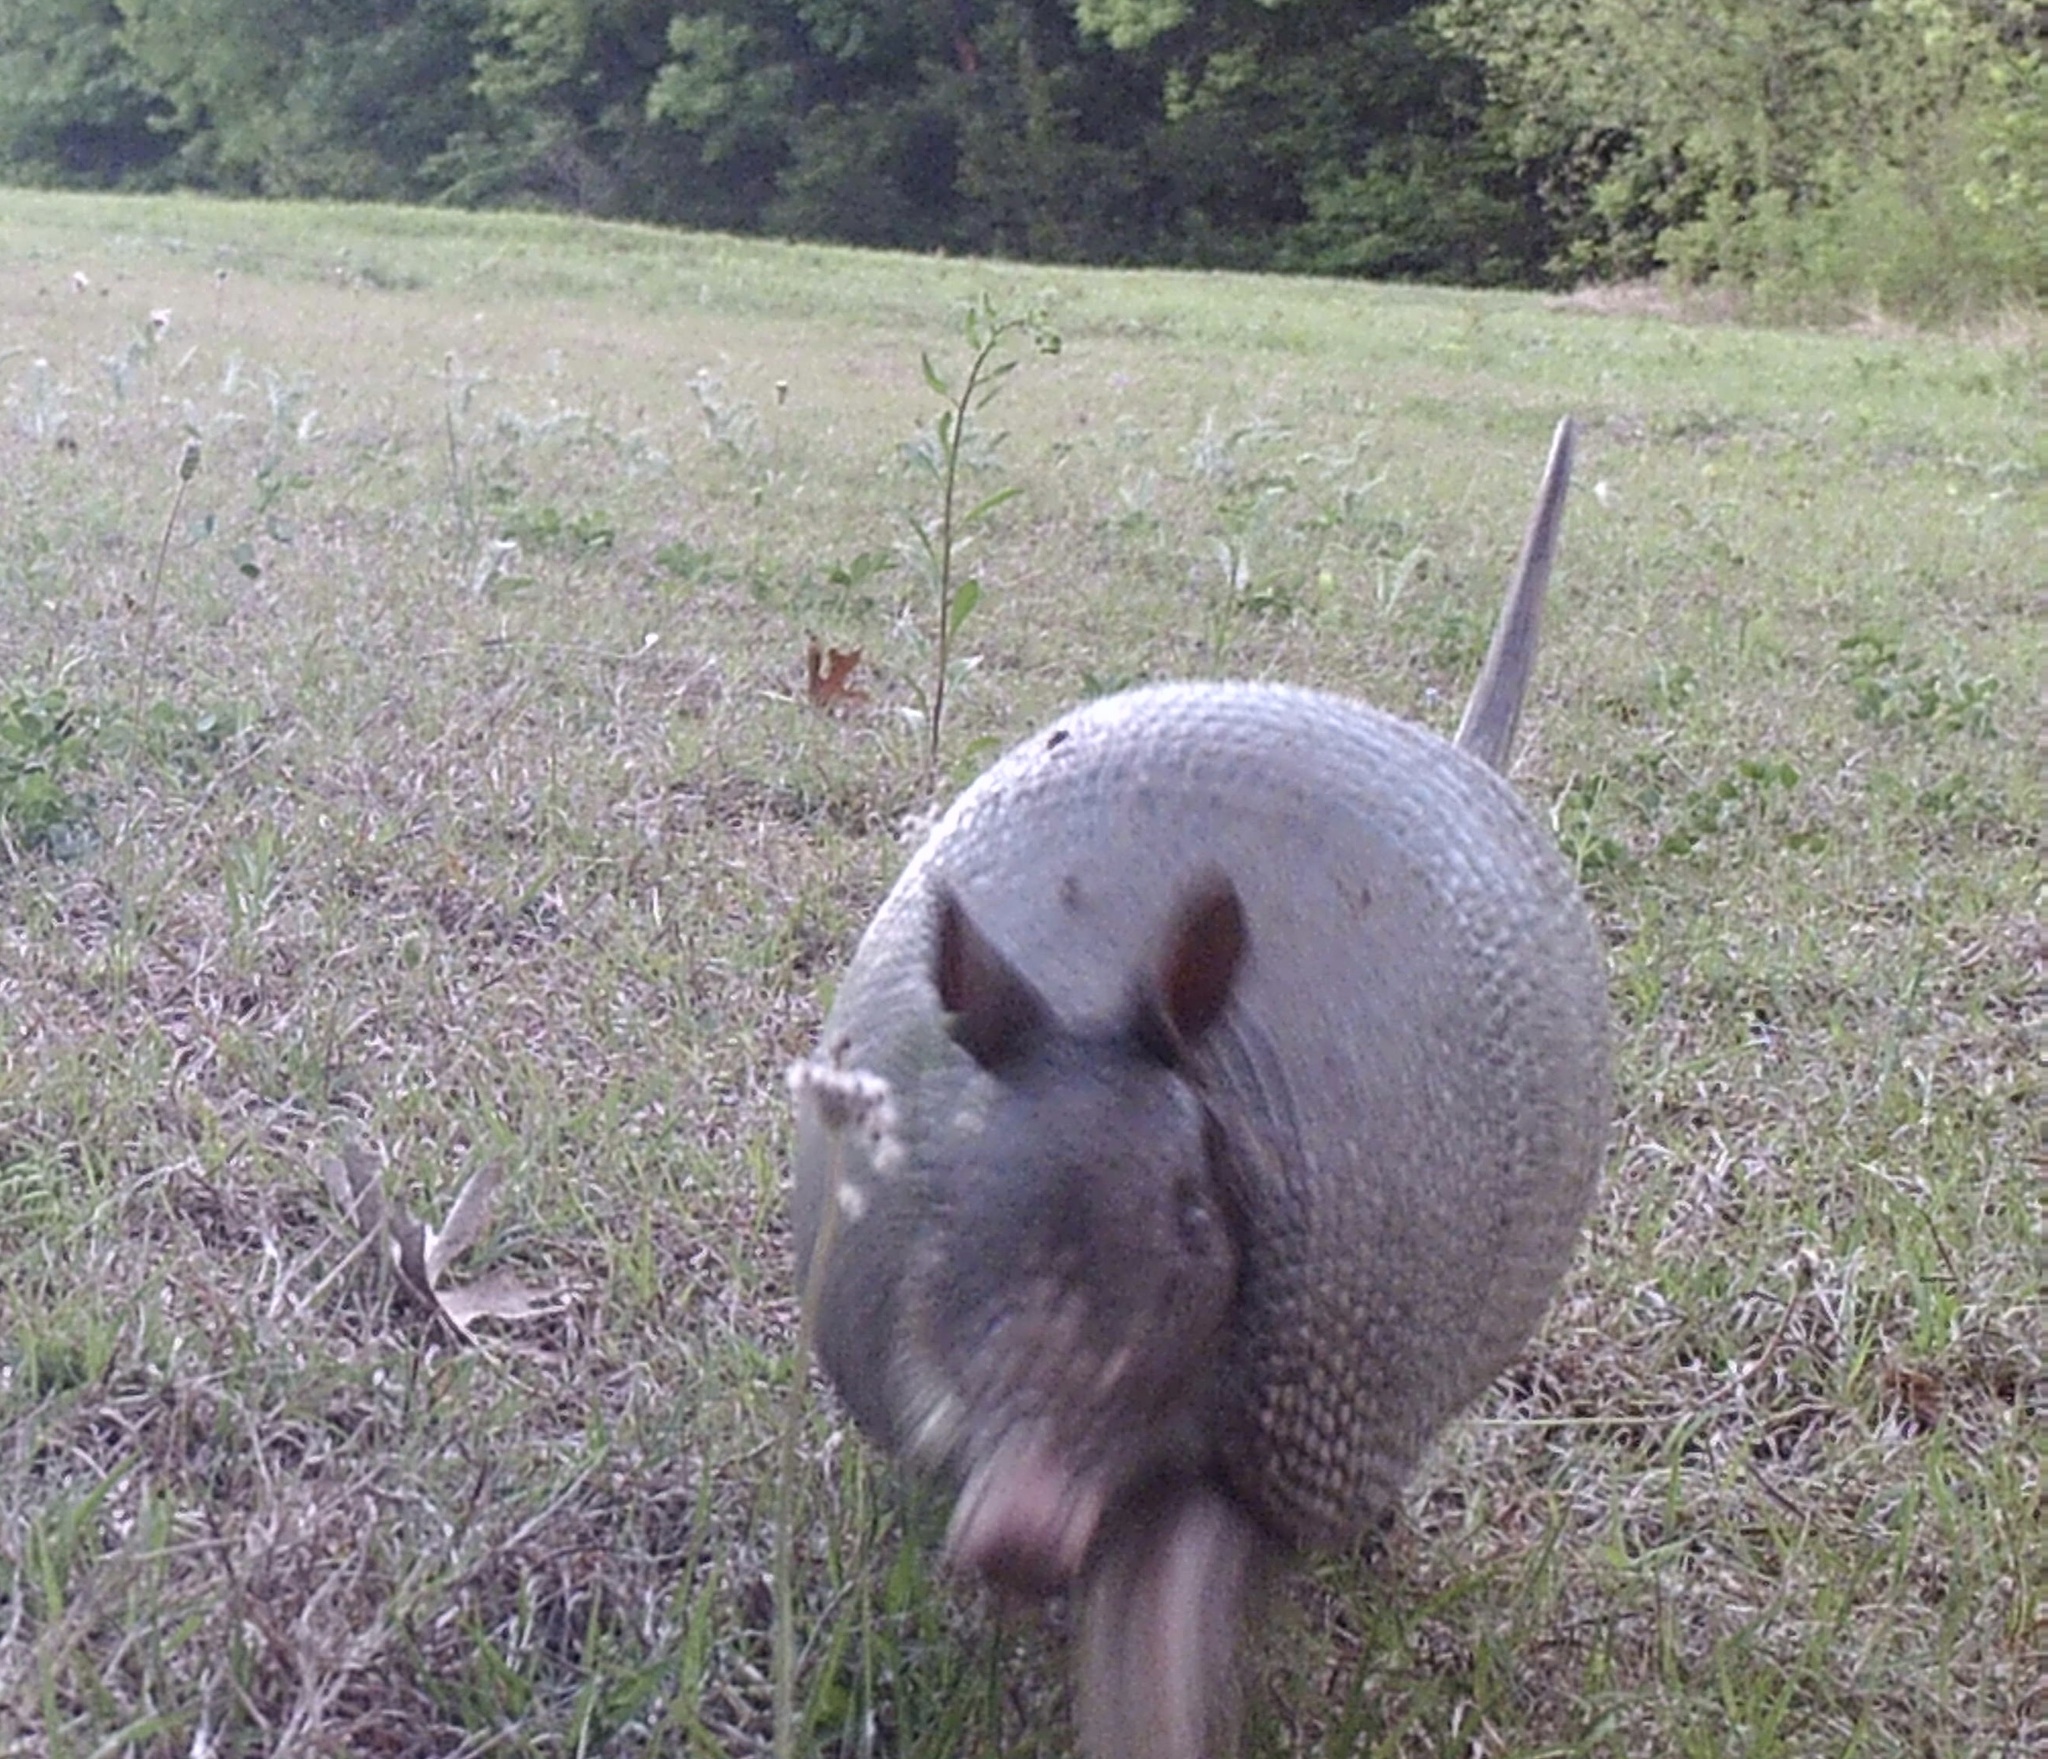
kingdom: Animalia
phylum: Chordata
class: Mammalia
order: Cingulata
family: Dasypodidae
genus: Dasypus
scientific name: Dasypus novemcinctus
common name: Nine-banded armadillo
